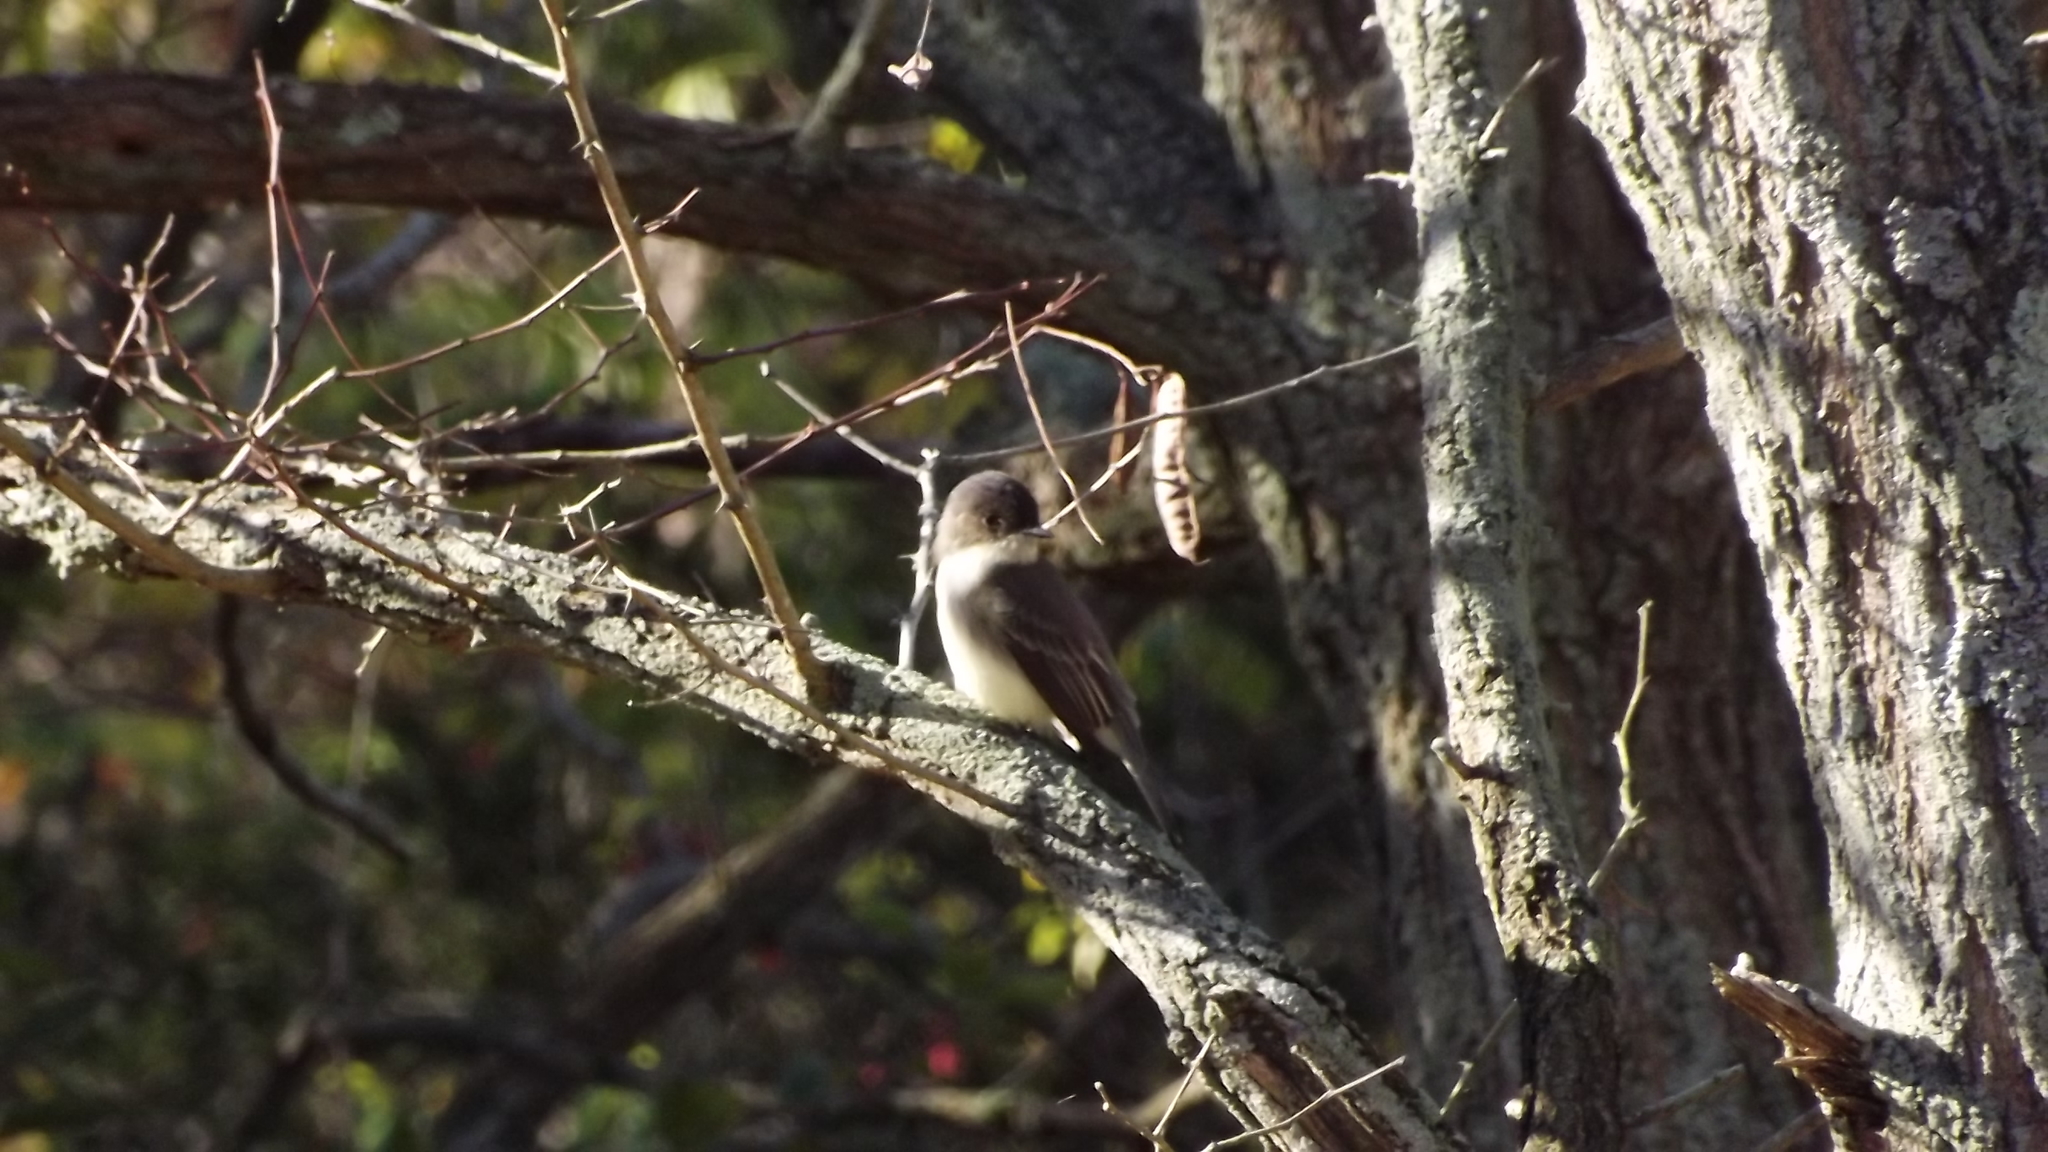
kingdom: Animalia
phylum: Chordata
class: Aves
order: Passeriformes
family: Tyrannidae
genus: Sayornis
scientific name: Sayornis phoebe
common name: Eastern phoebe
